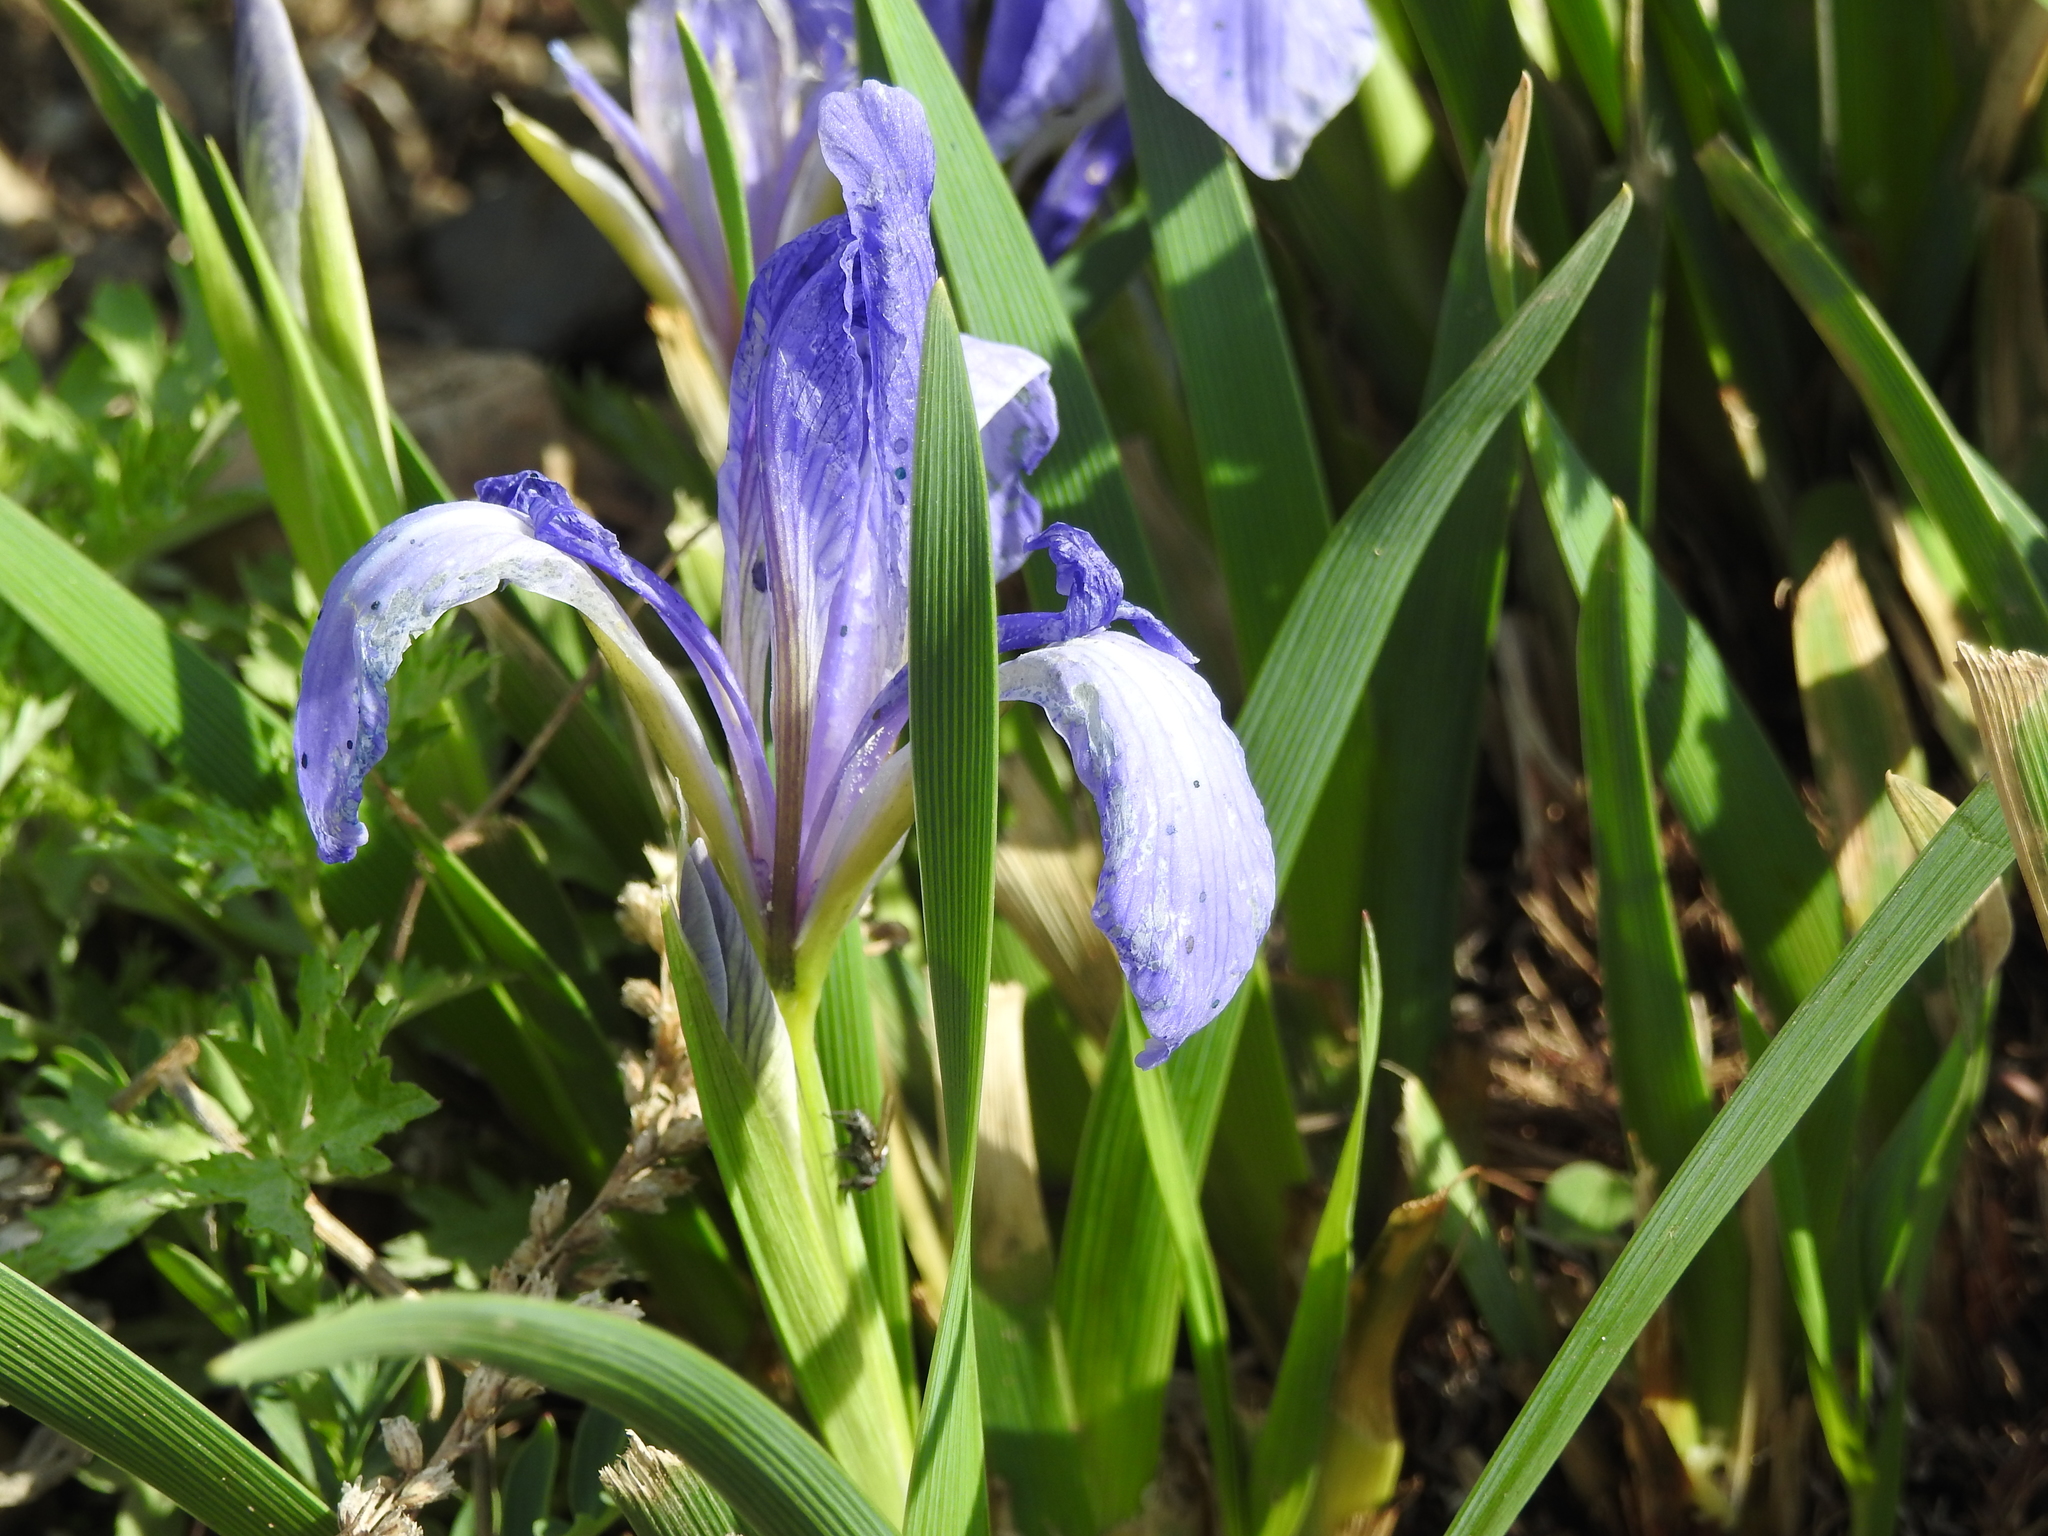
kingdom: Plantae
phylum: Tracheophyta
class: Liliopsida
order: Asparagales
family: Iridaceae
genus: Iris
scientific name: Iris lactea
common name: White-flower chinese iris
